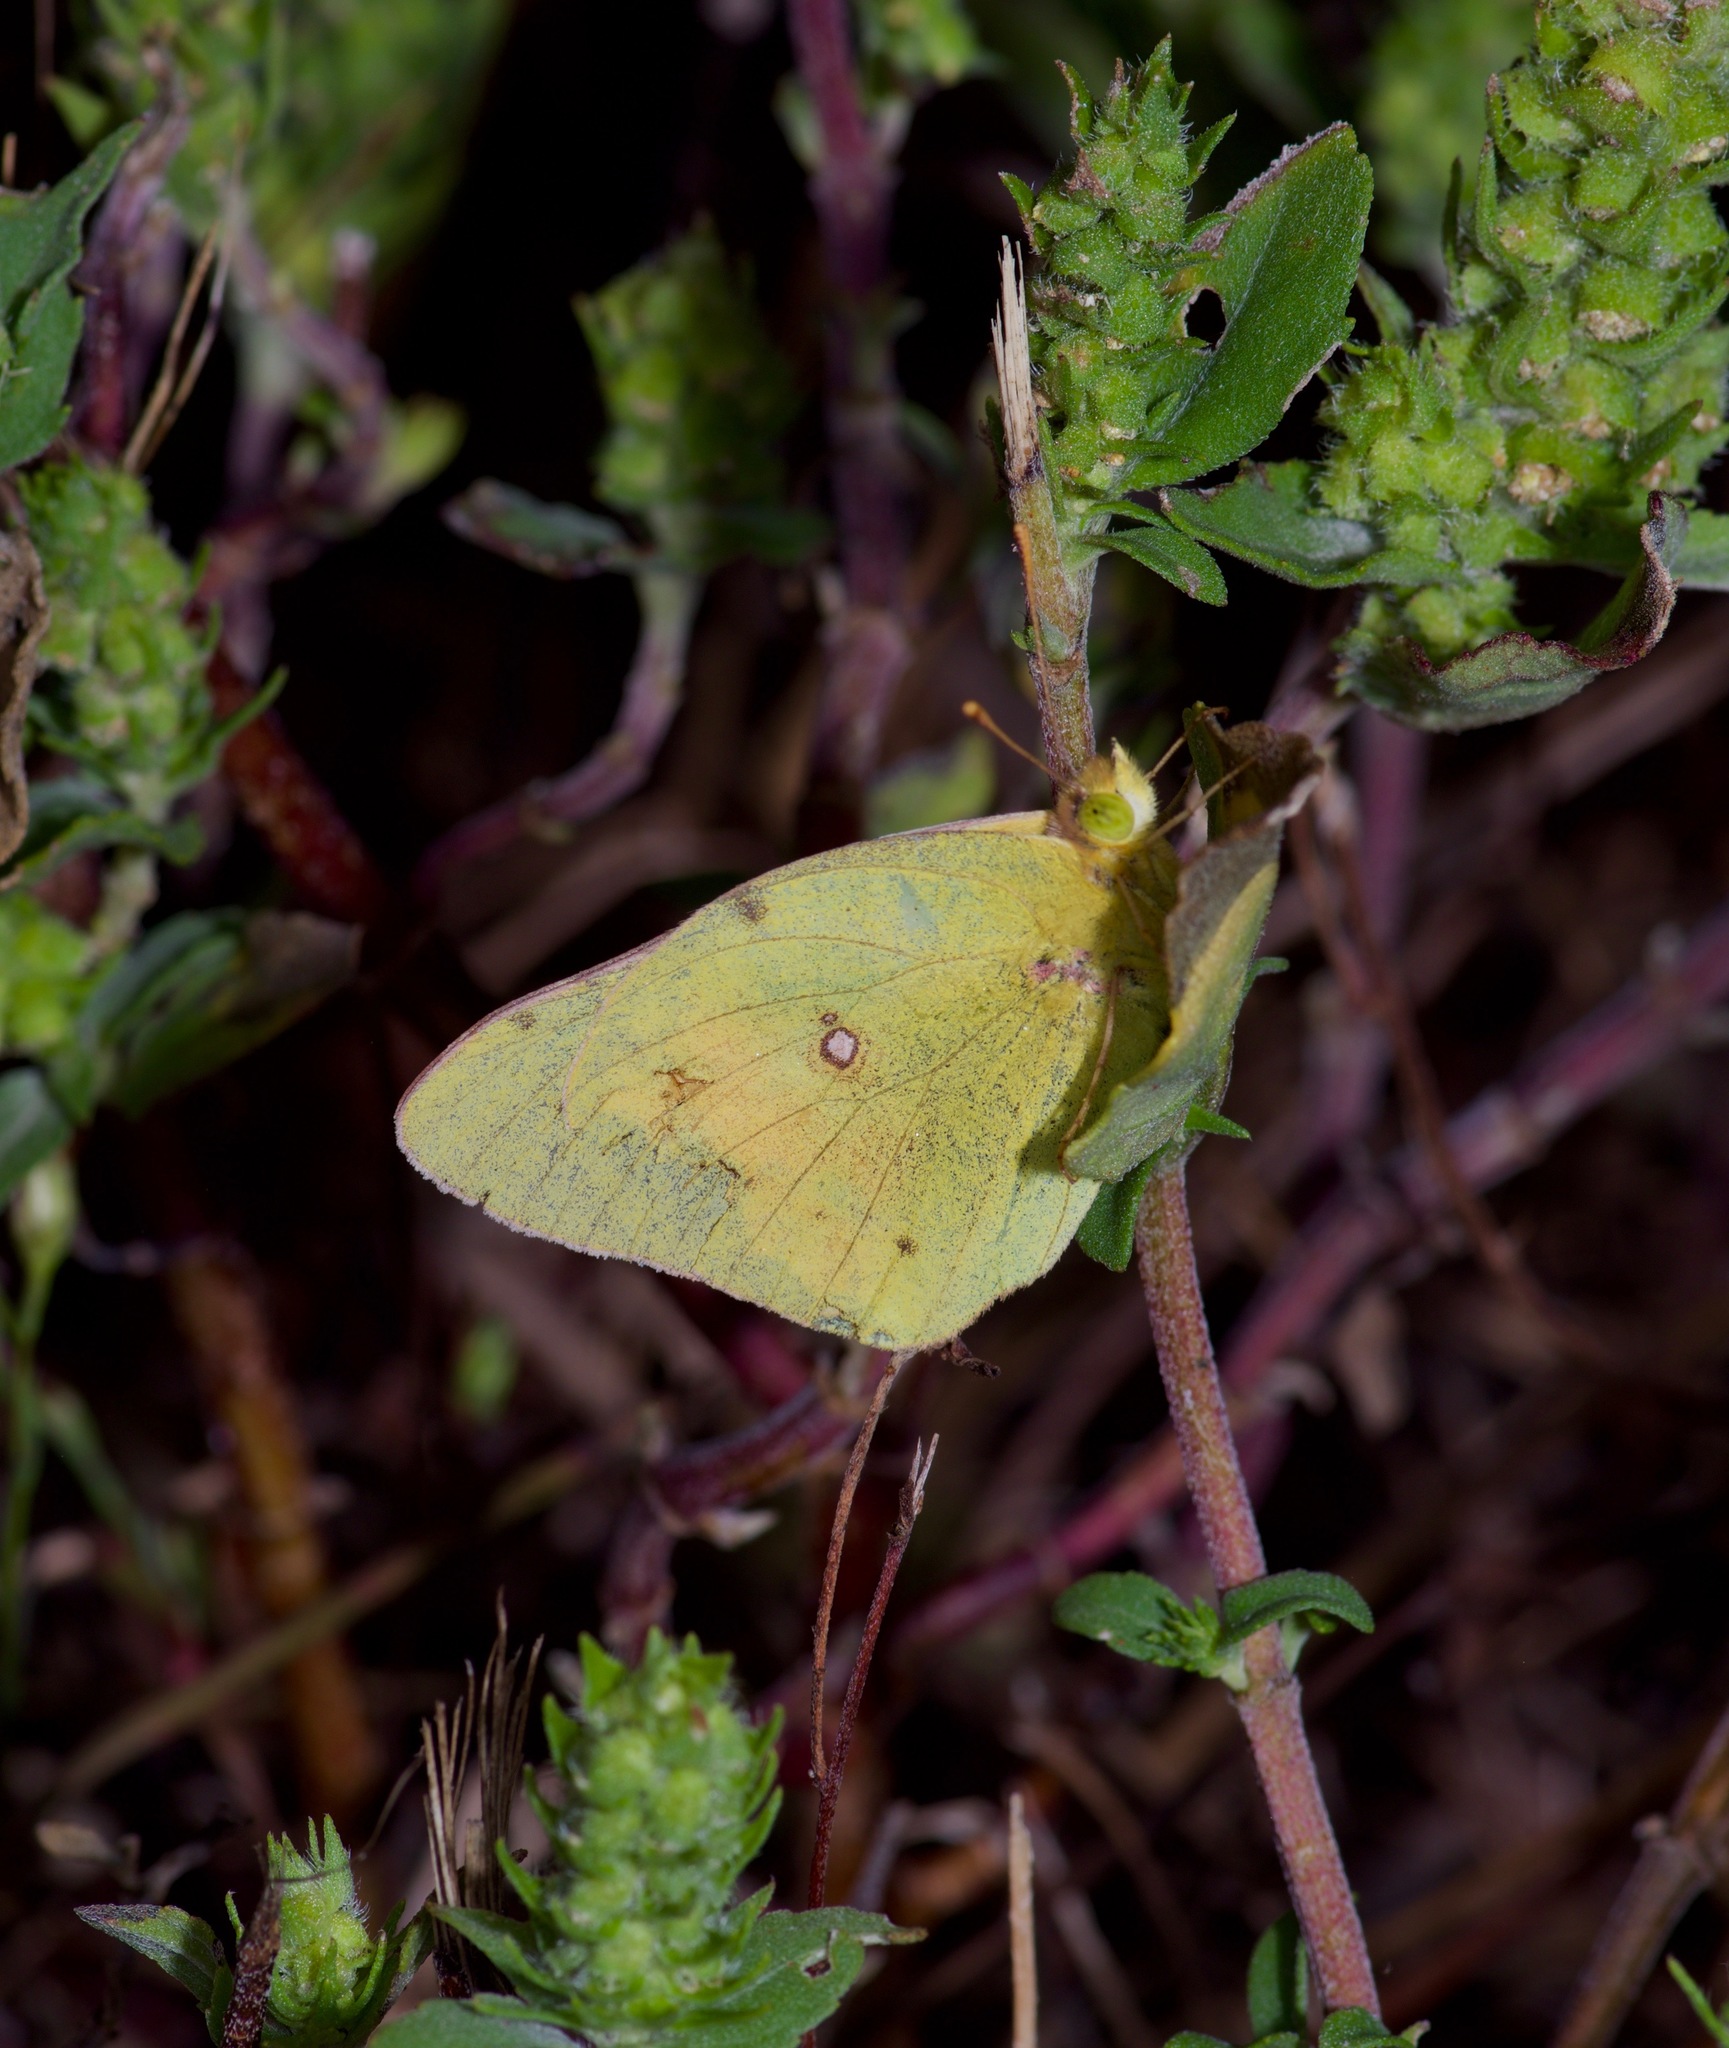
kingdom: Animalia
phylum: Arthropoda
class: Insecta
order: Lepidoptera
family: Pieridae
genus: Colias
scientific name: Colias eurytheme
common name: Alfalfa butterfly
